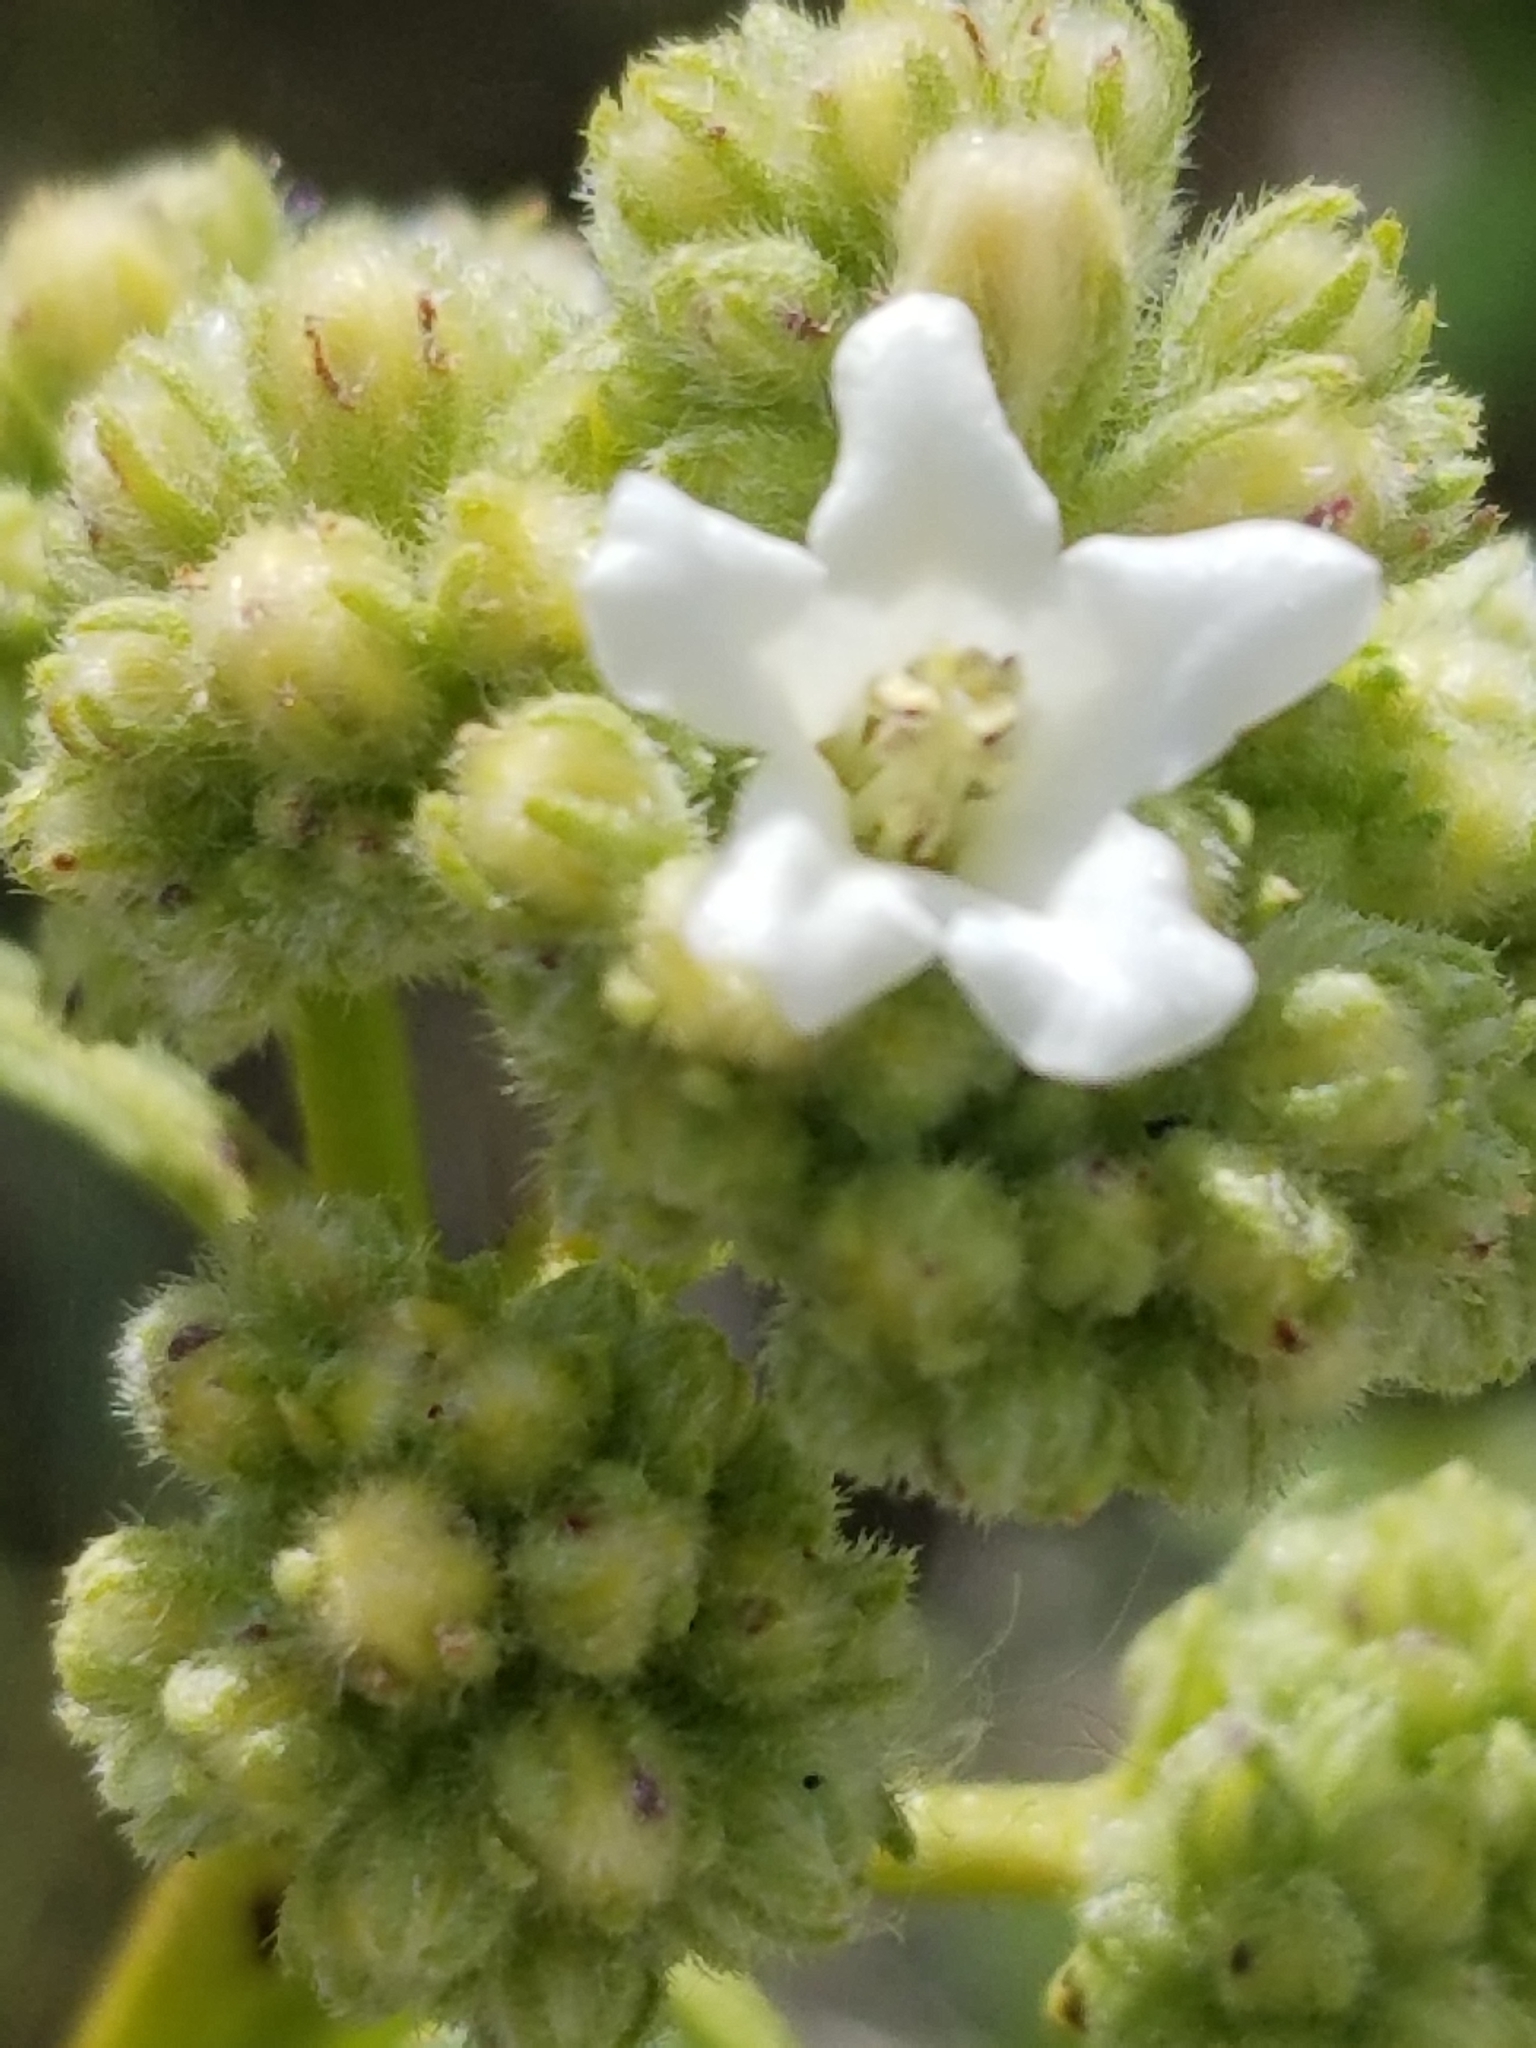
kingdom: Plantae
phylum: Tracheophyta
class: Magnoliopsida
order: Boraginales
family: Namaceae
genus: Eriodictyon
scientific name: Eriodictyon trichocalyx
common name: Hairy yerba-santa
